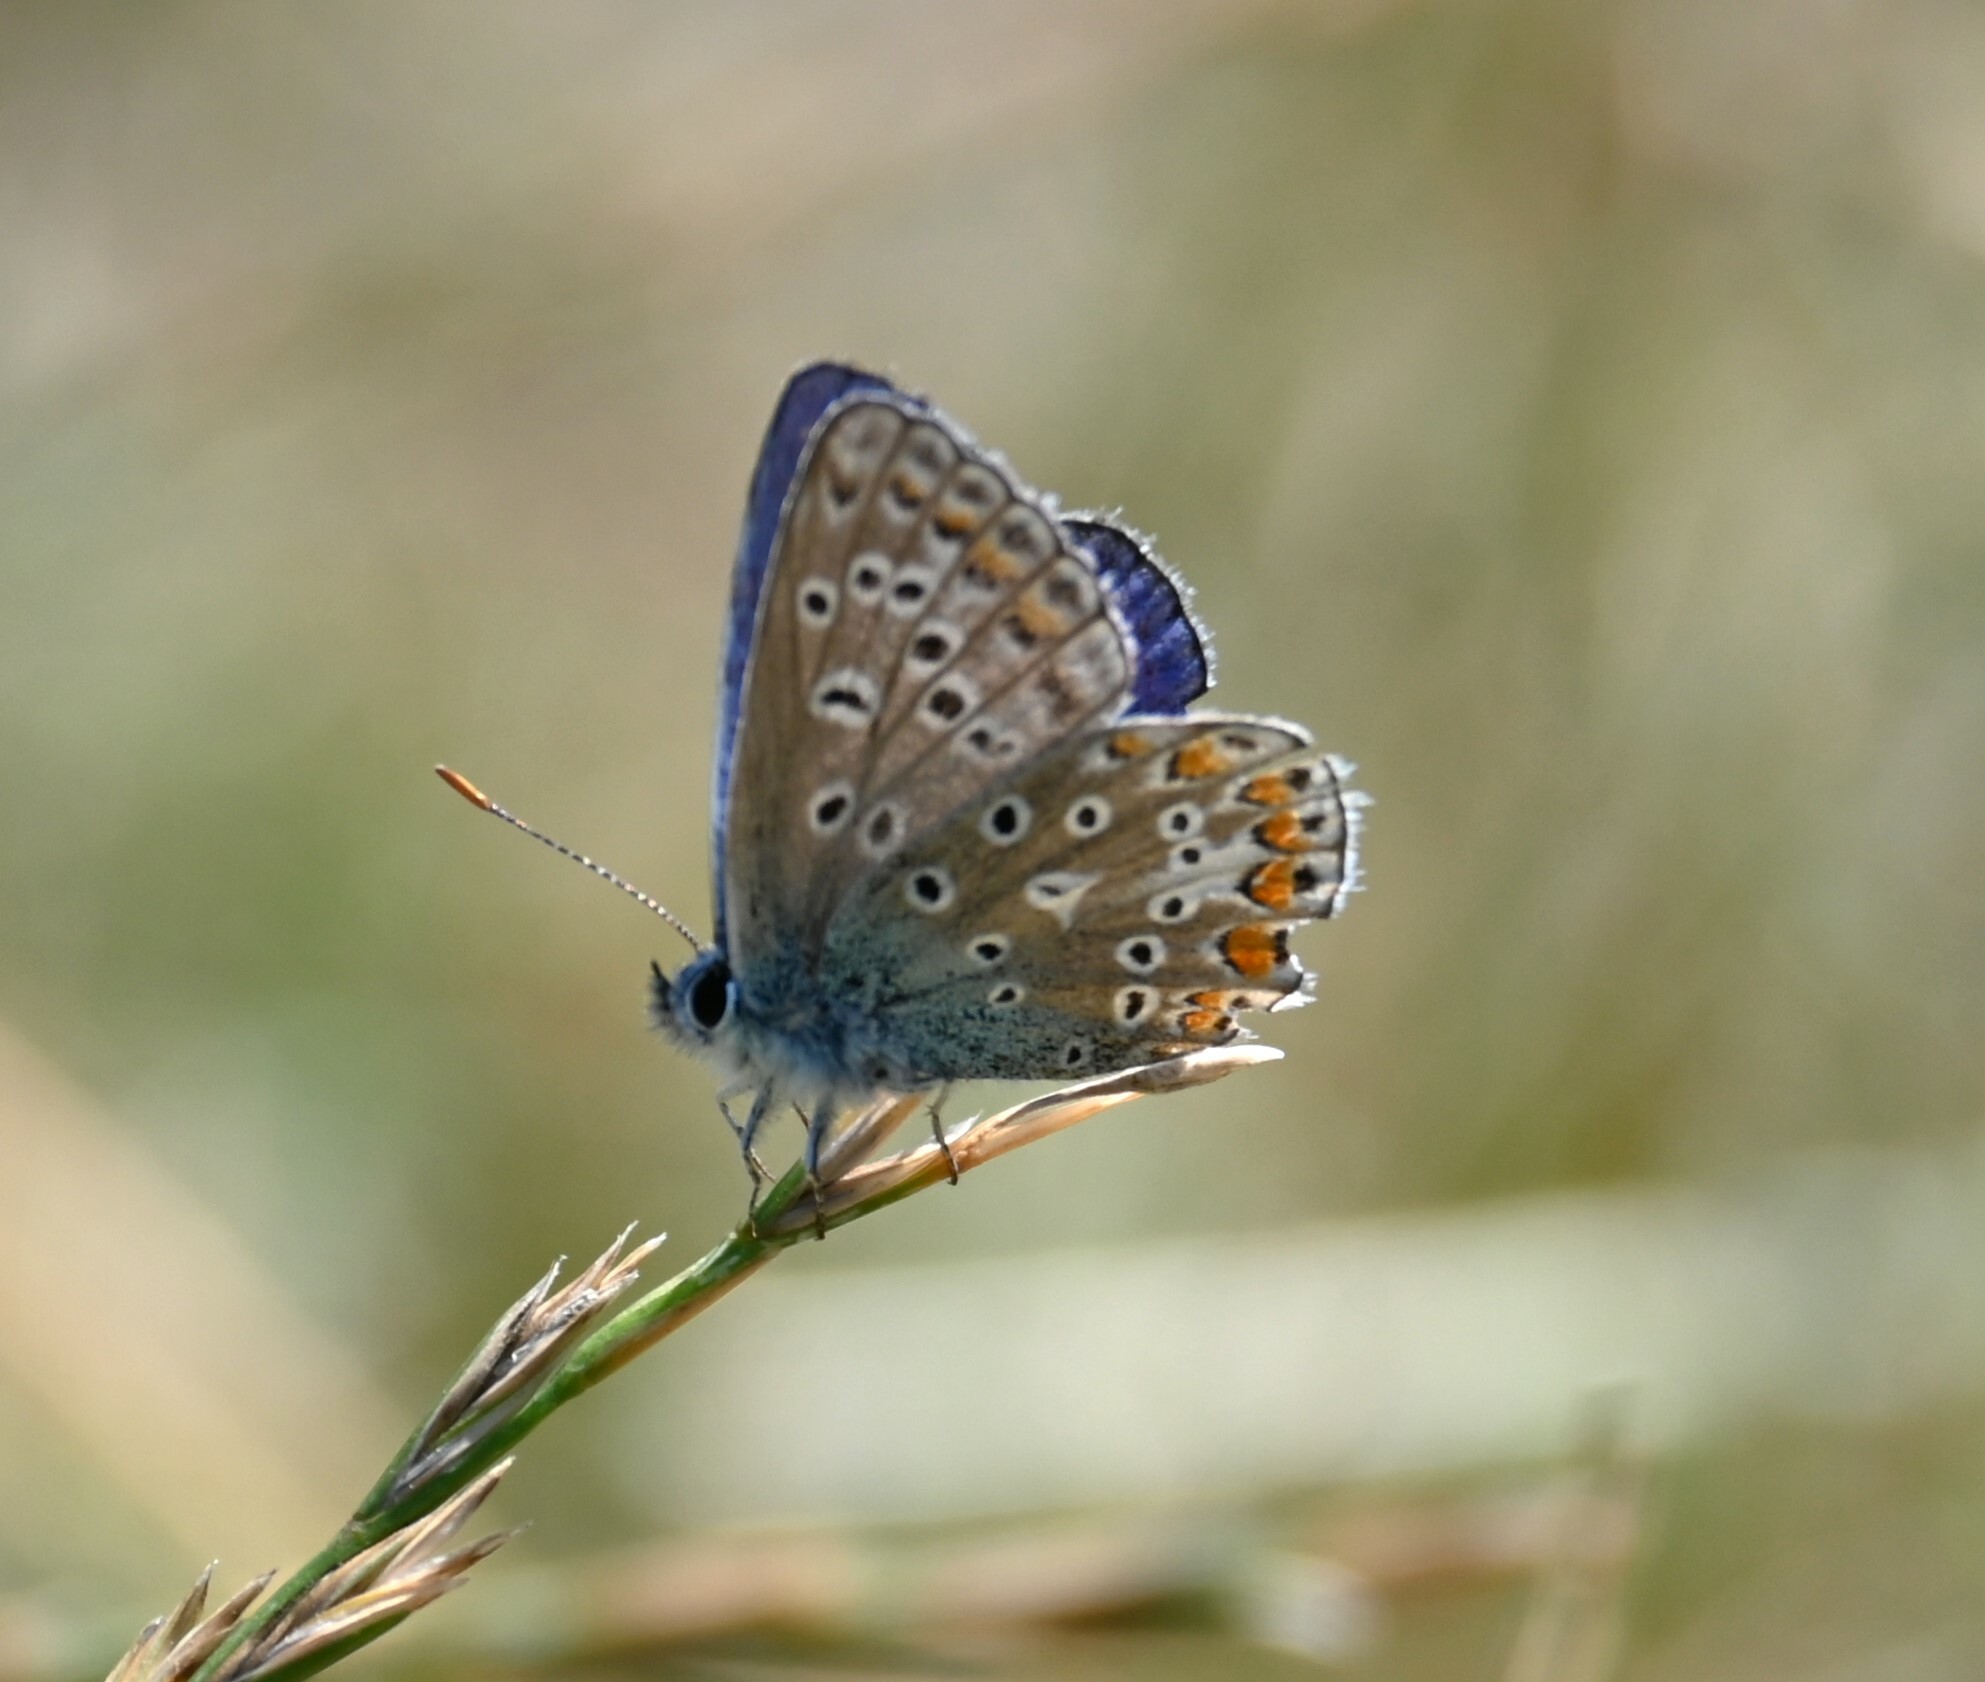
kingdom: Animalia
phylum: Arthropoda
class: Insecta
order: Lepidoptera
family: Lycaenidae
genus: Polyommatus
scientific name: Polyommatus icarus
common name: Common blue
